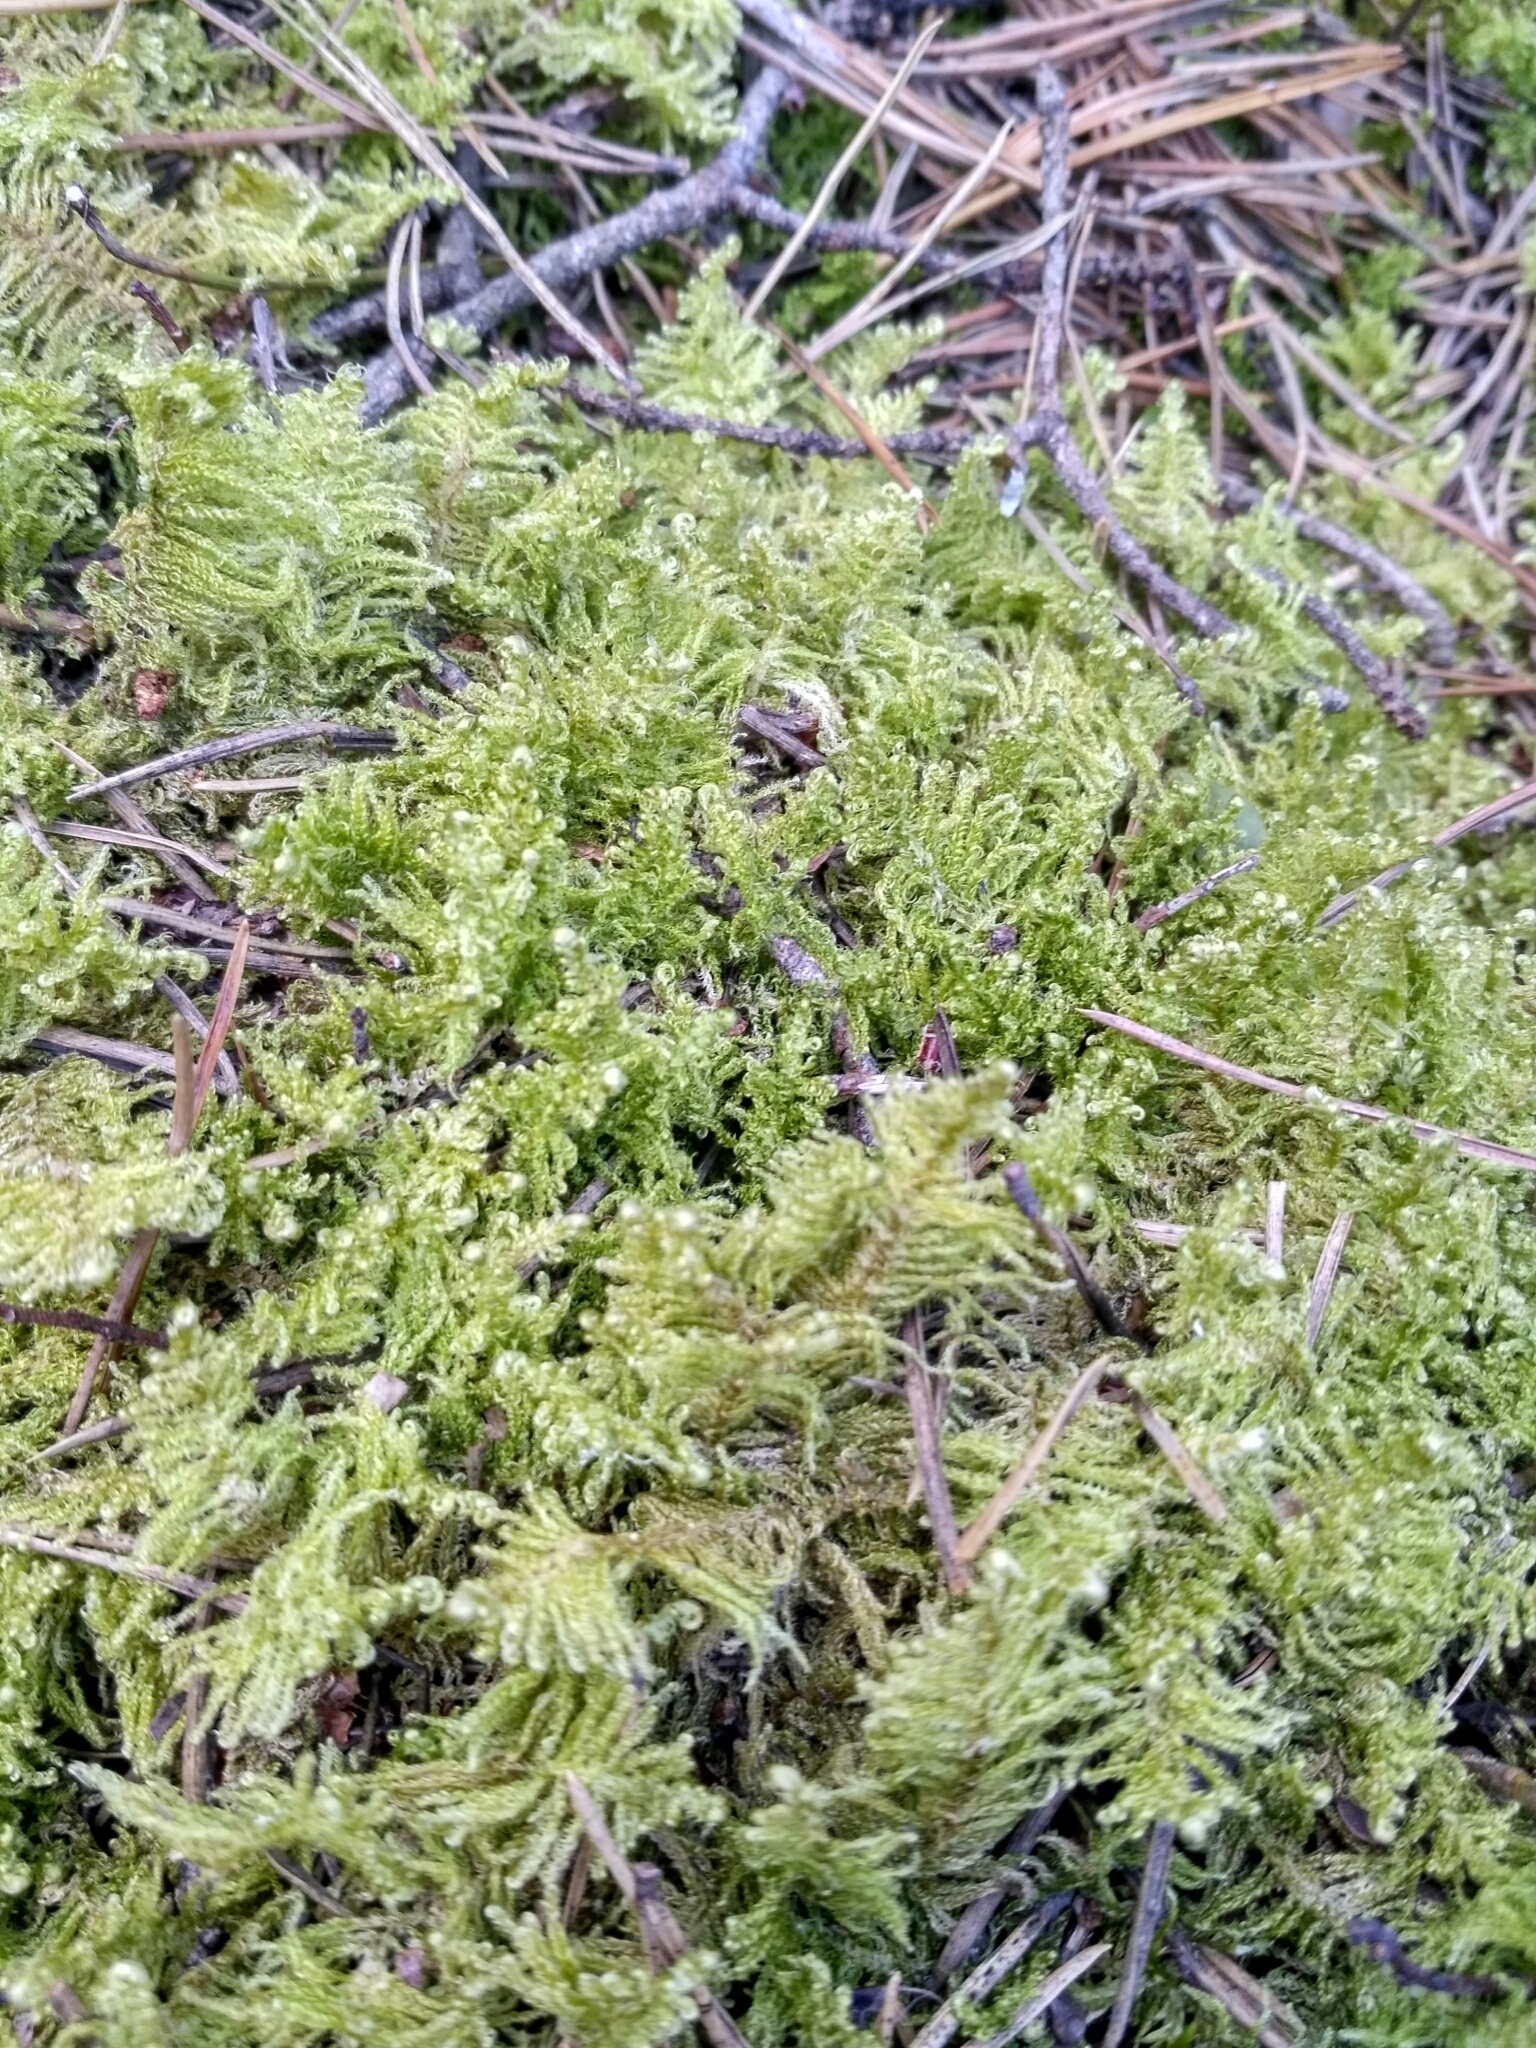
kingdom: Plantae
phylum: Bryophyta
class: Bryopsida
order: Hypnales
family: Pylaisiaceae
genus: Ptilium
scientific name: Ptilium crista-castrensis
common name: Knight's plume moss
